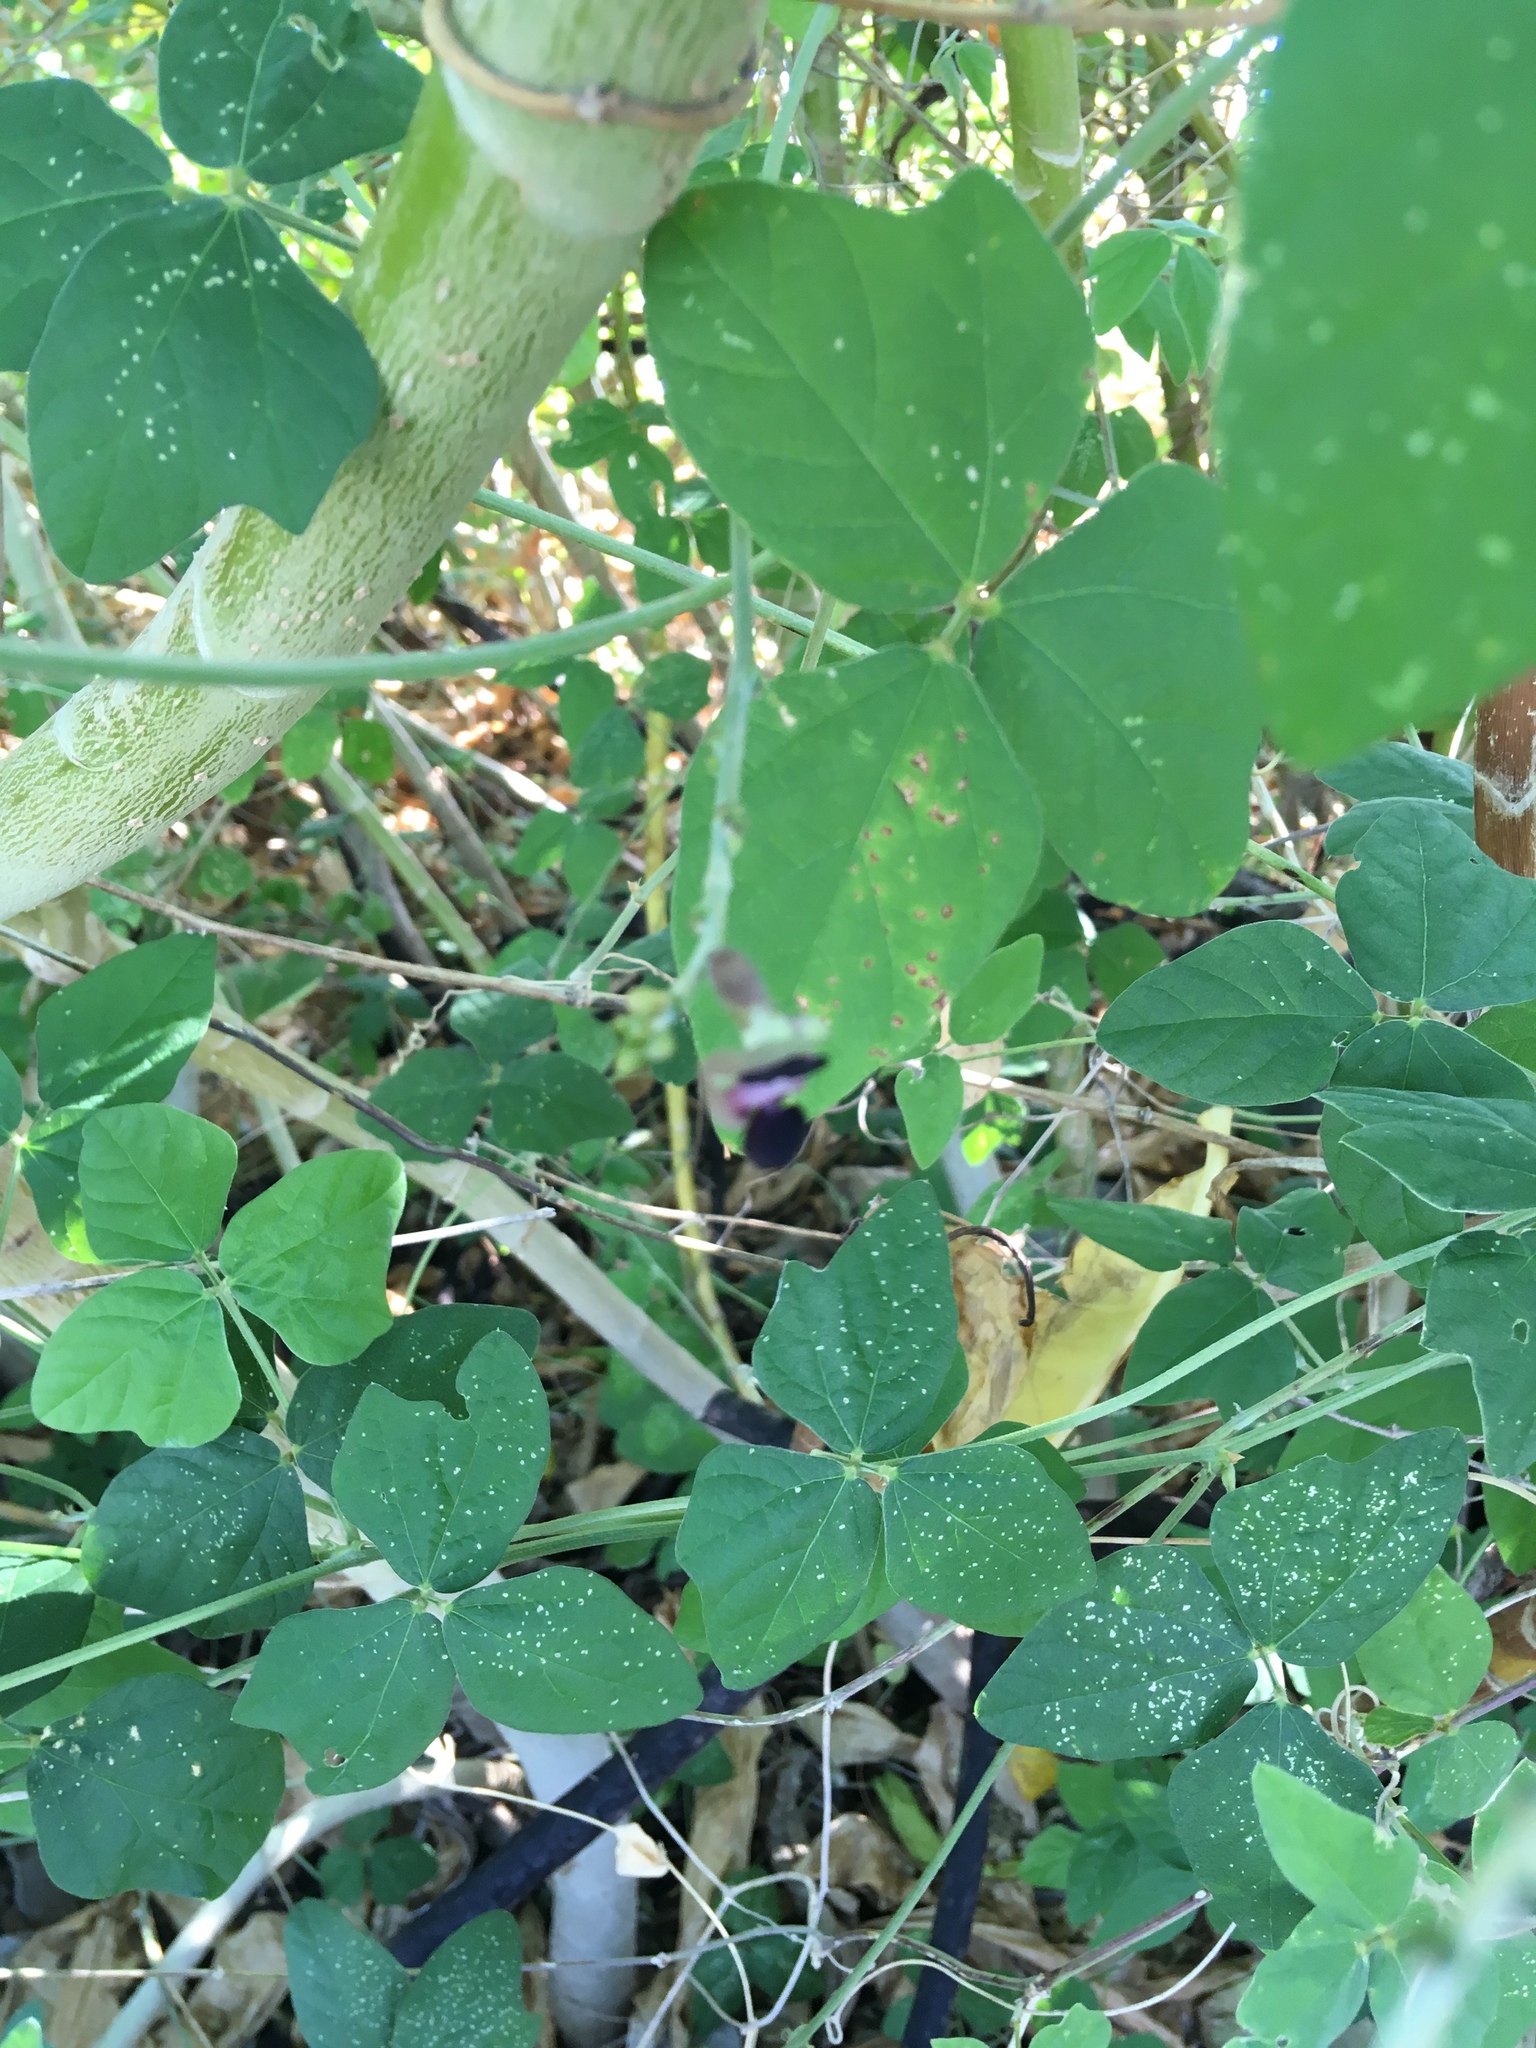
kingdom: Plantae
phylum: Tracheophyta
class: Magnoliopsida
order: Fabales
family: Fabaceae
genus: Macroptilium
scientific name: Macroptilium atropurpureum
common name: Purple bushbean
